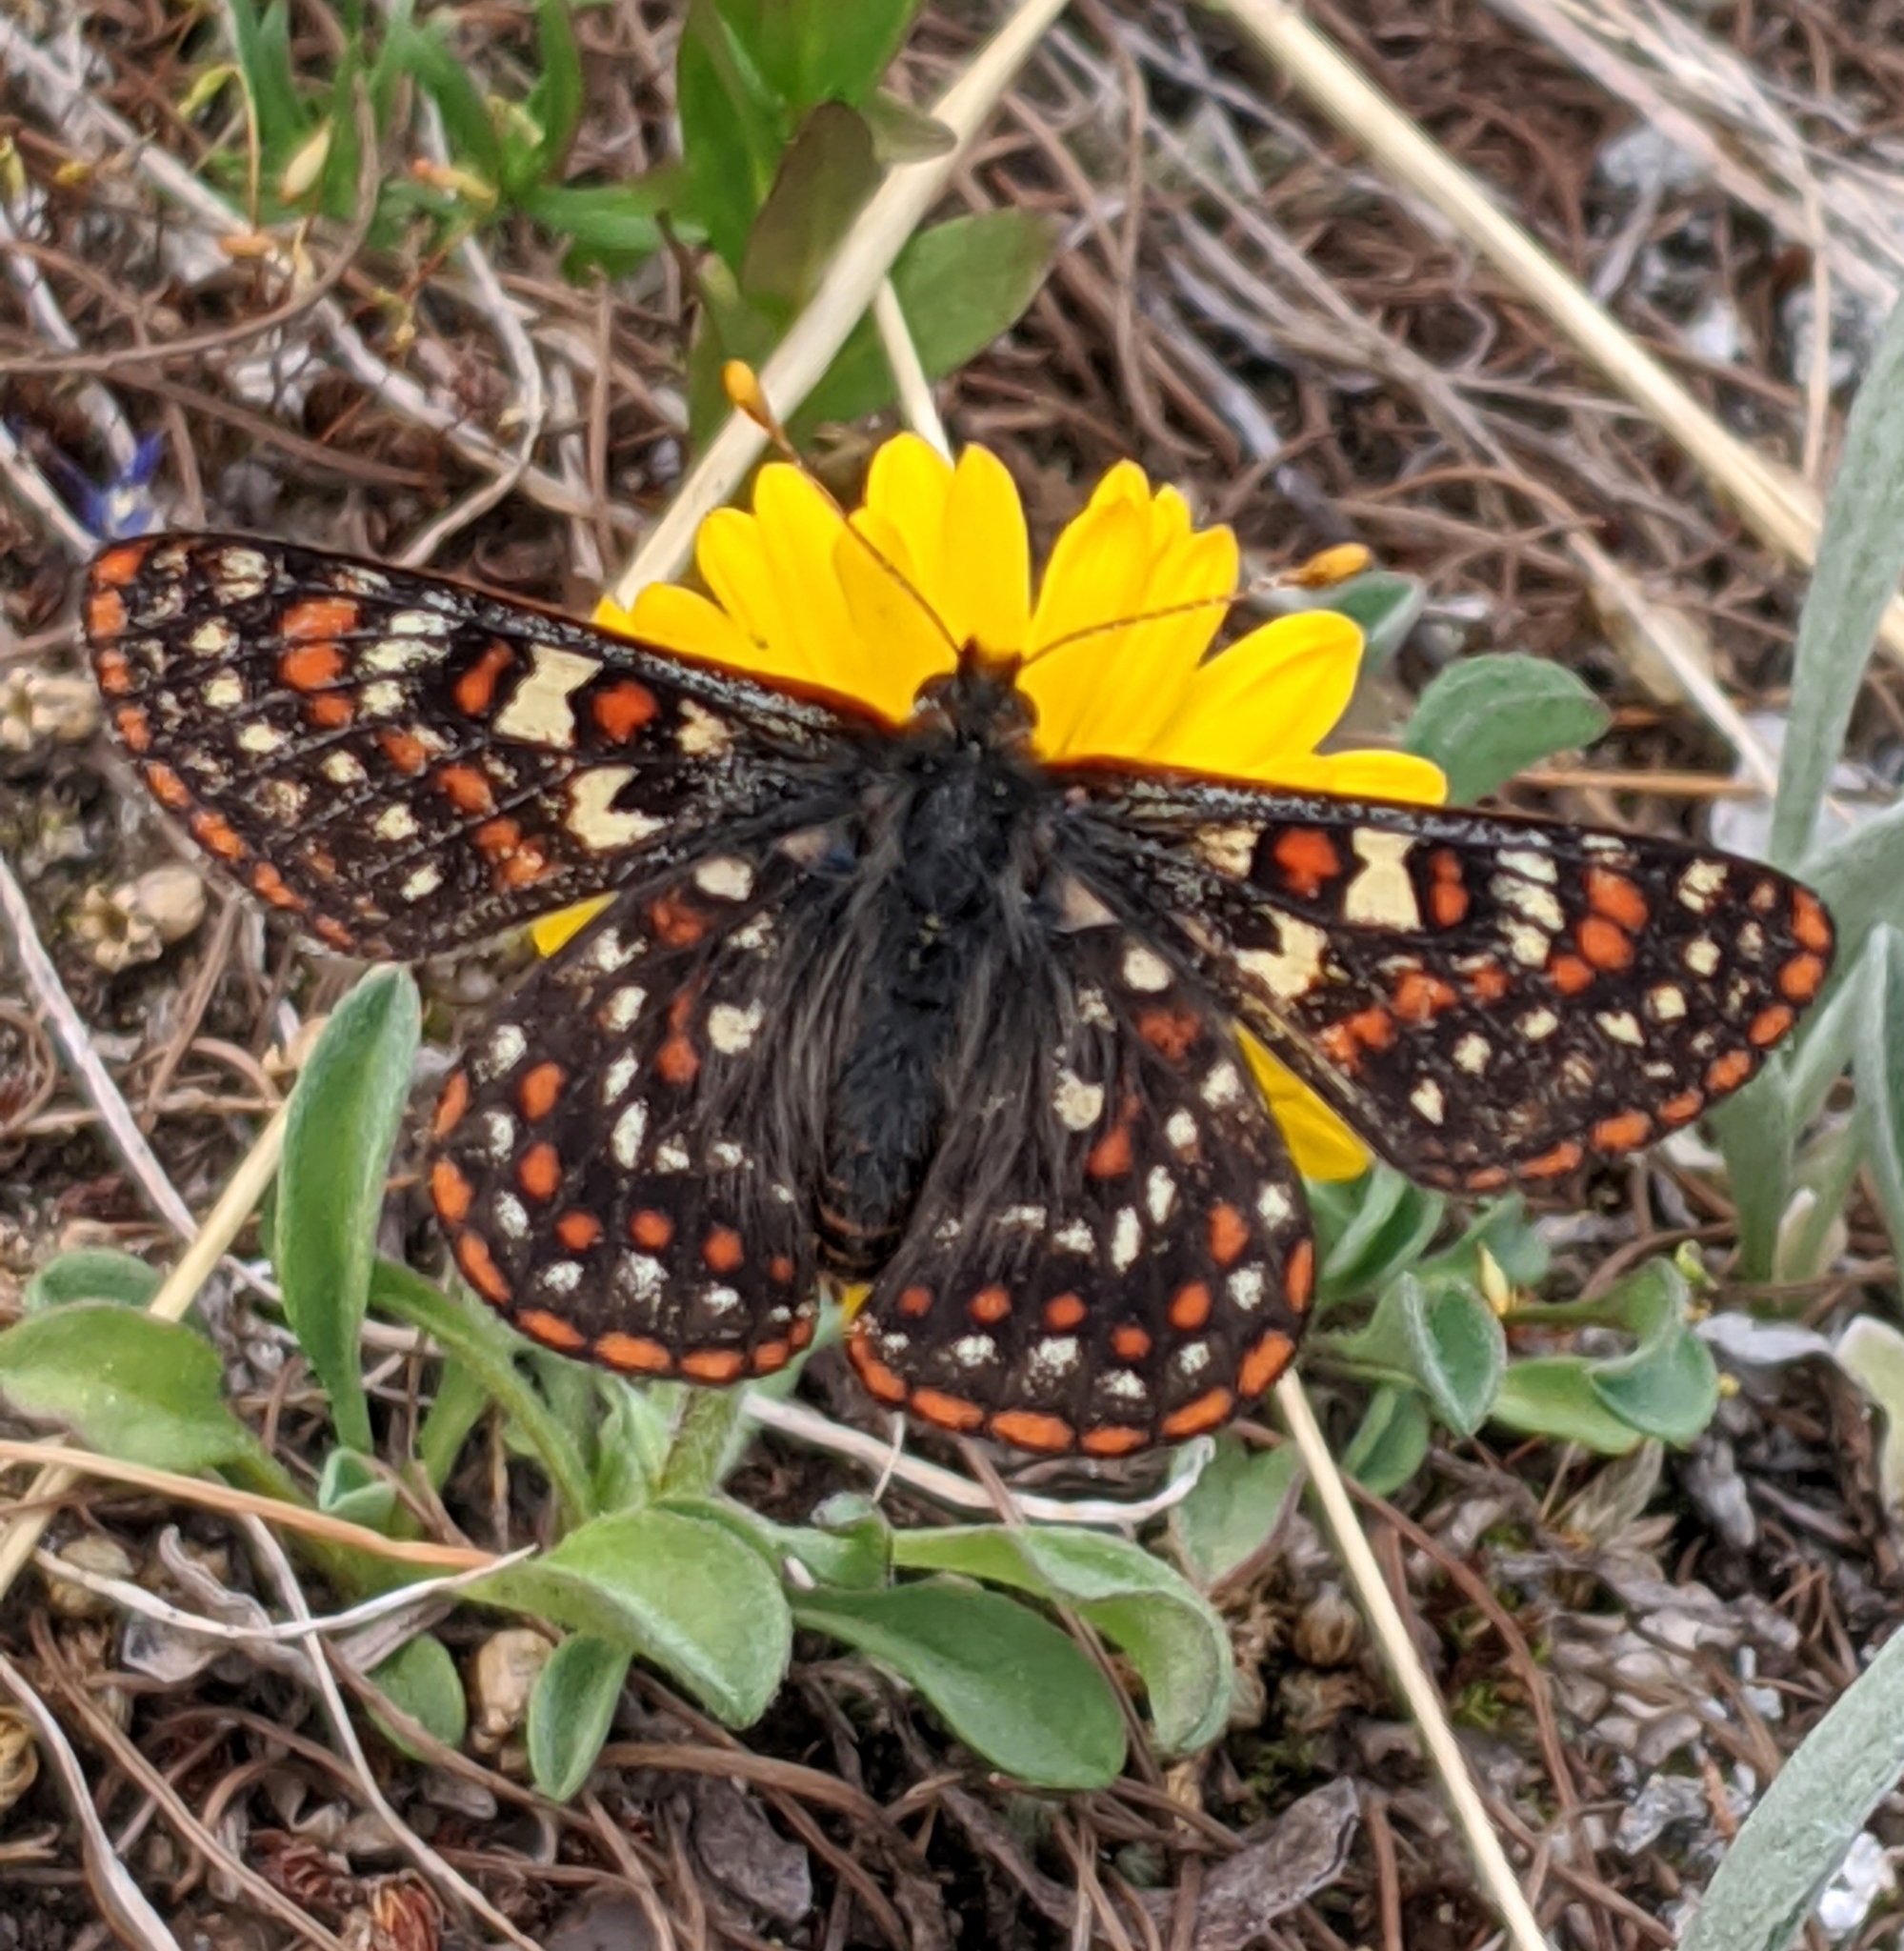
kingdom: Animalia
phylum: Arthropoda
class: Insecta
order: Lepidoptera
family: Nymphalidae
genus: Occidryas
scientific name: Occidryas editha
